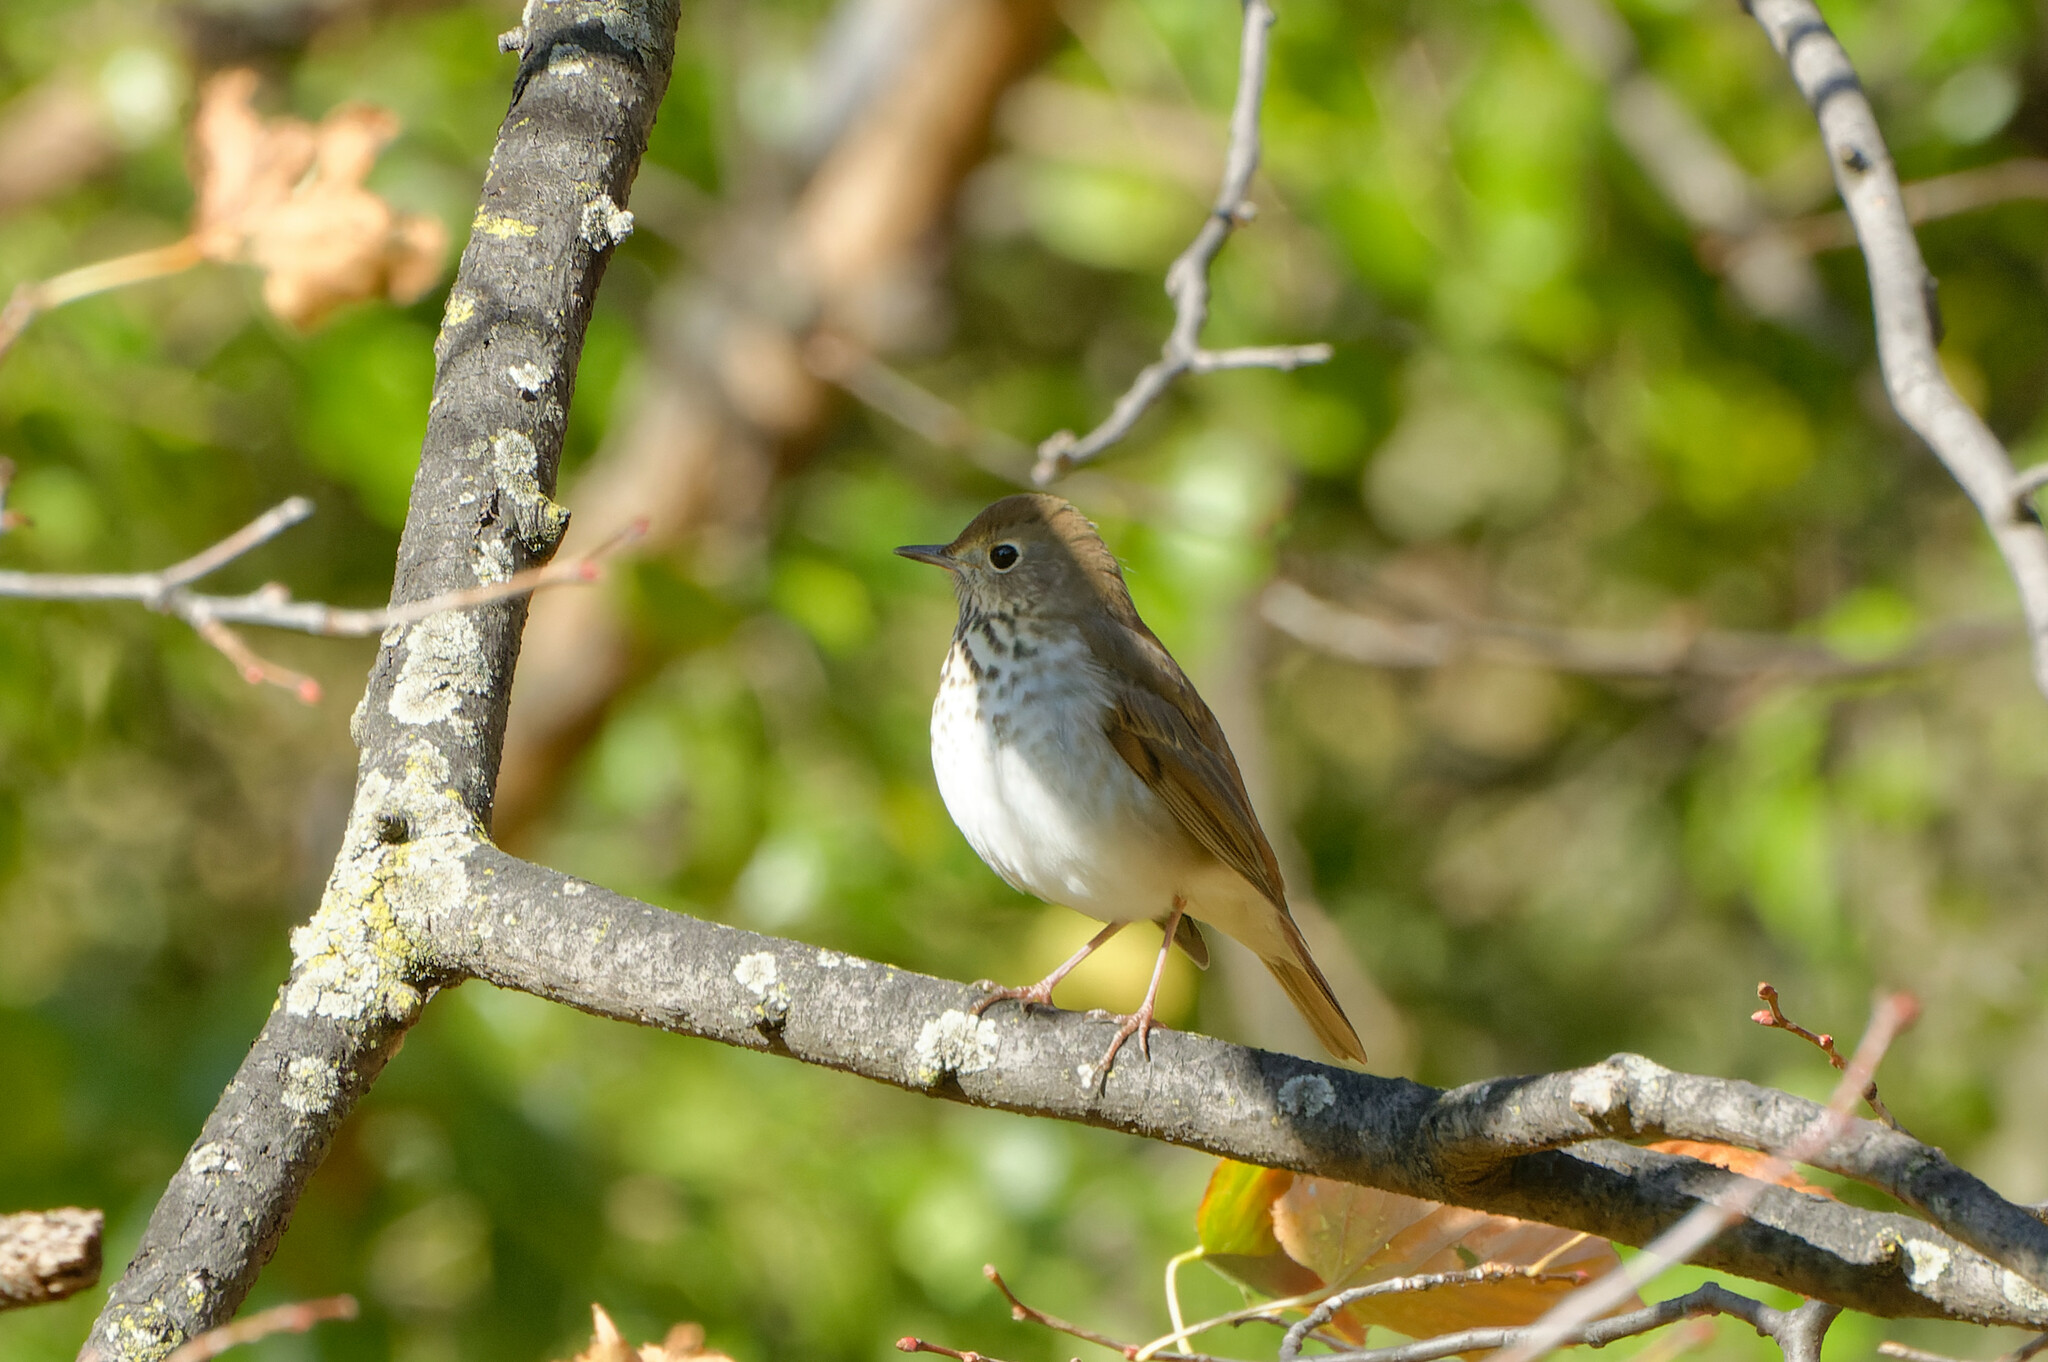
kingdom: Animalia
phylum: Chordata
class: Aves
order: Passeriformes
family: Turdidae
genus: Catharus
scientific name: Catharus guttatus
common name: Hermit thrush
